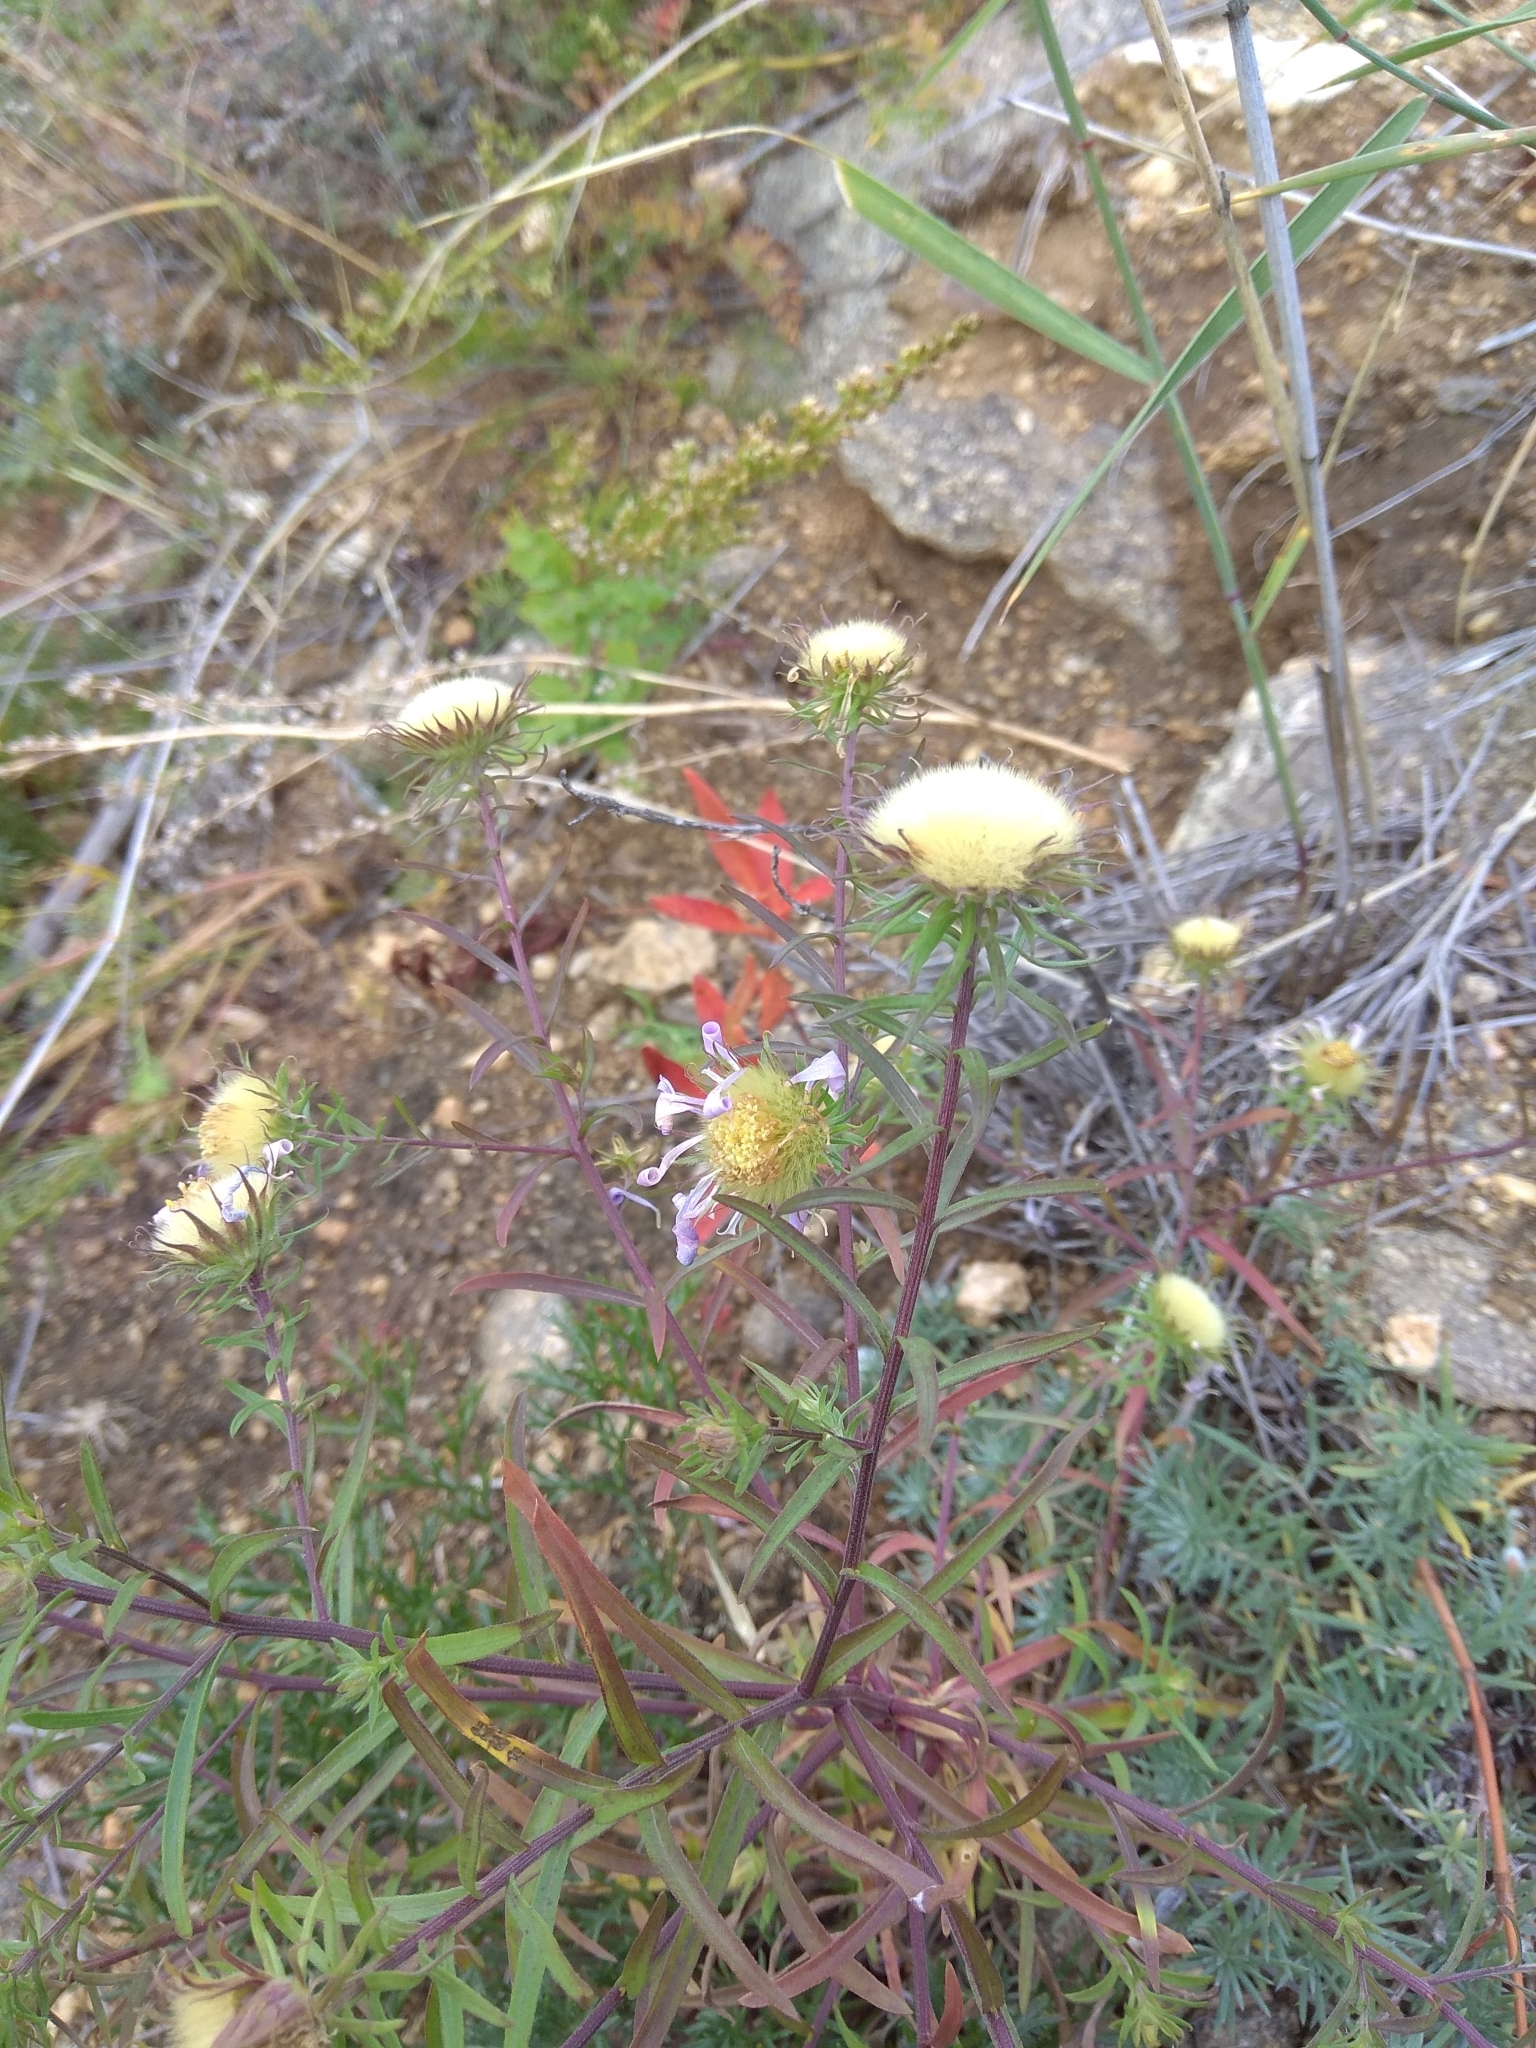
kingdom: Plantae
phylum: Tracheophyta
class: Magnoliopsida
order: Asterales
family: Asteraceae
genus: Heteropappus
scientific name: Heteropappus altaicus
